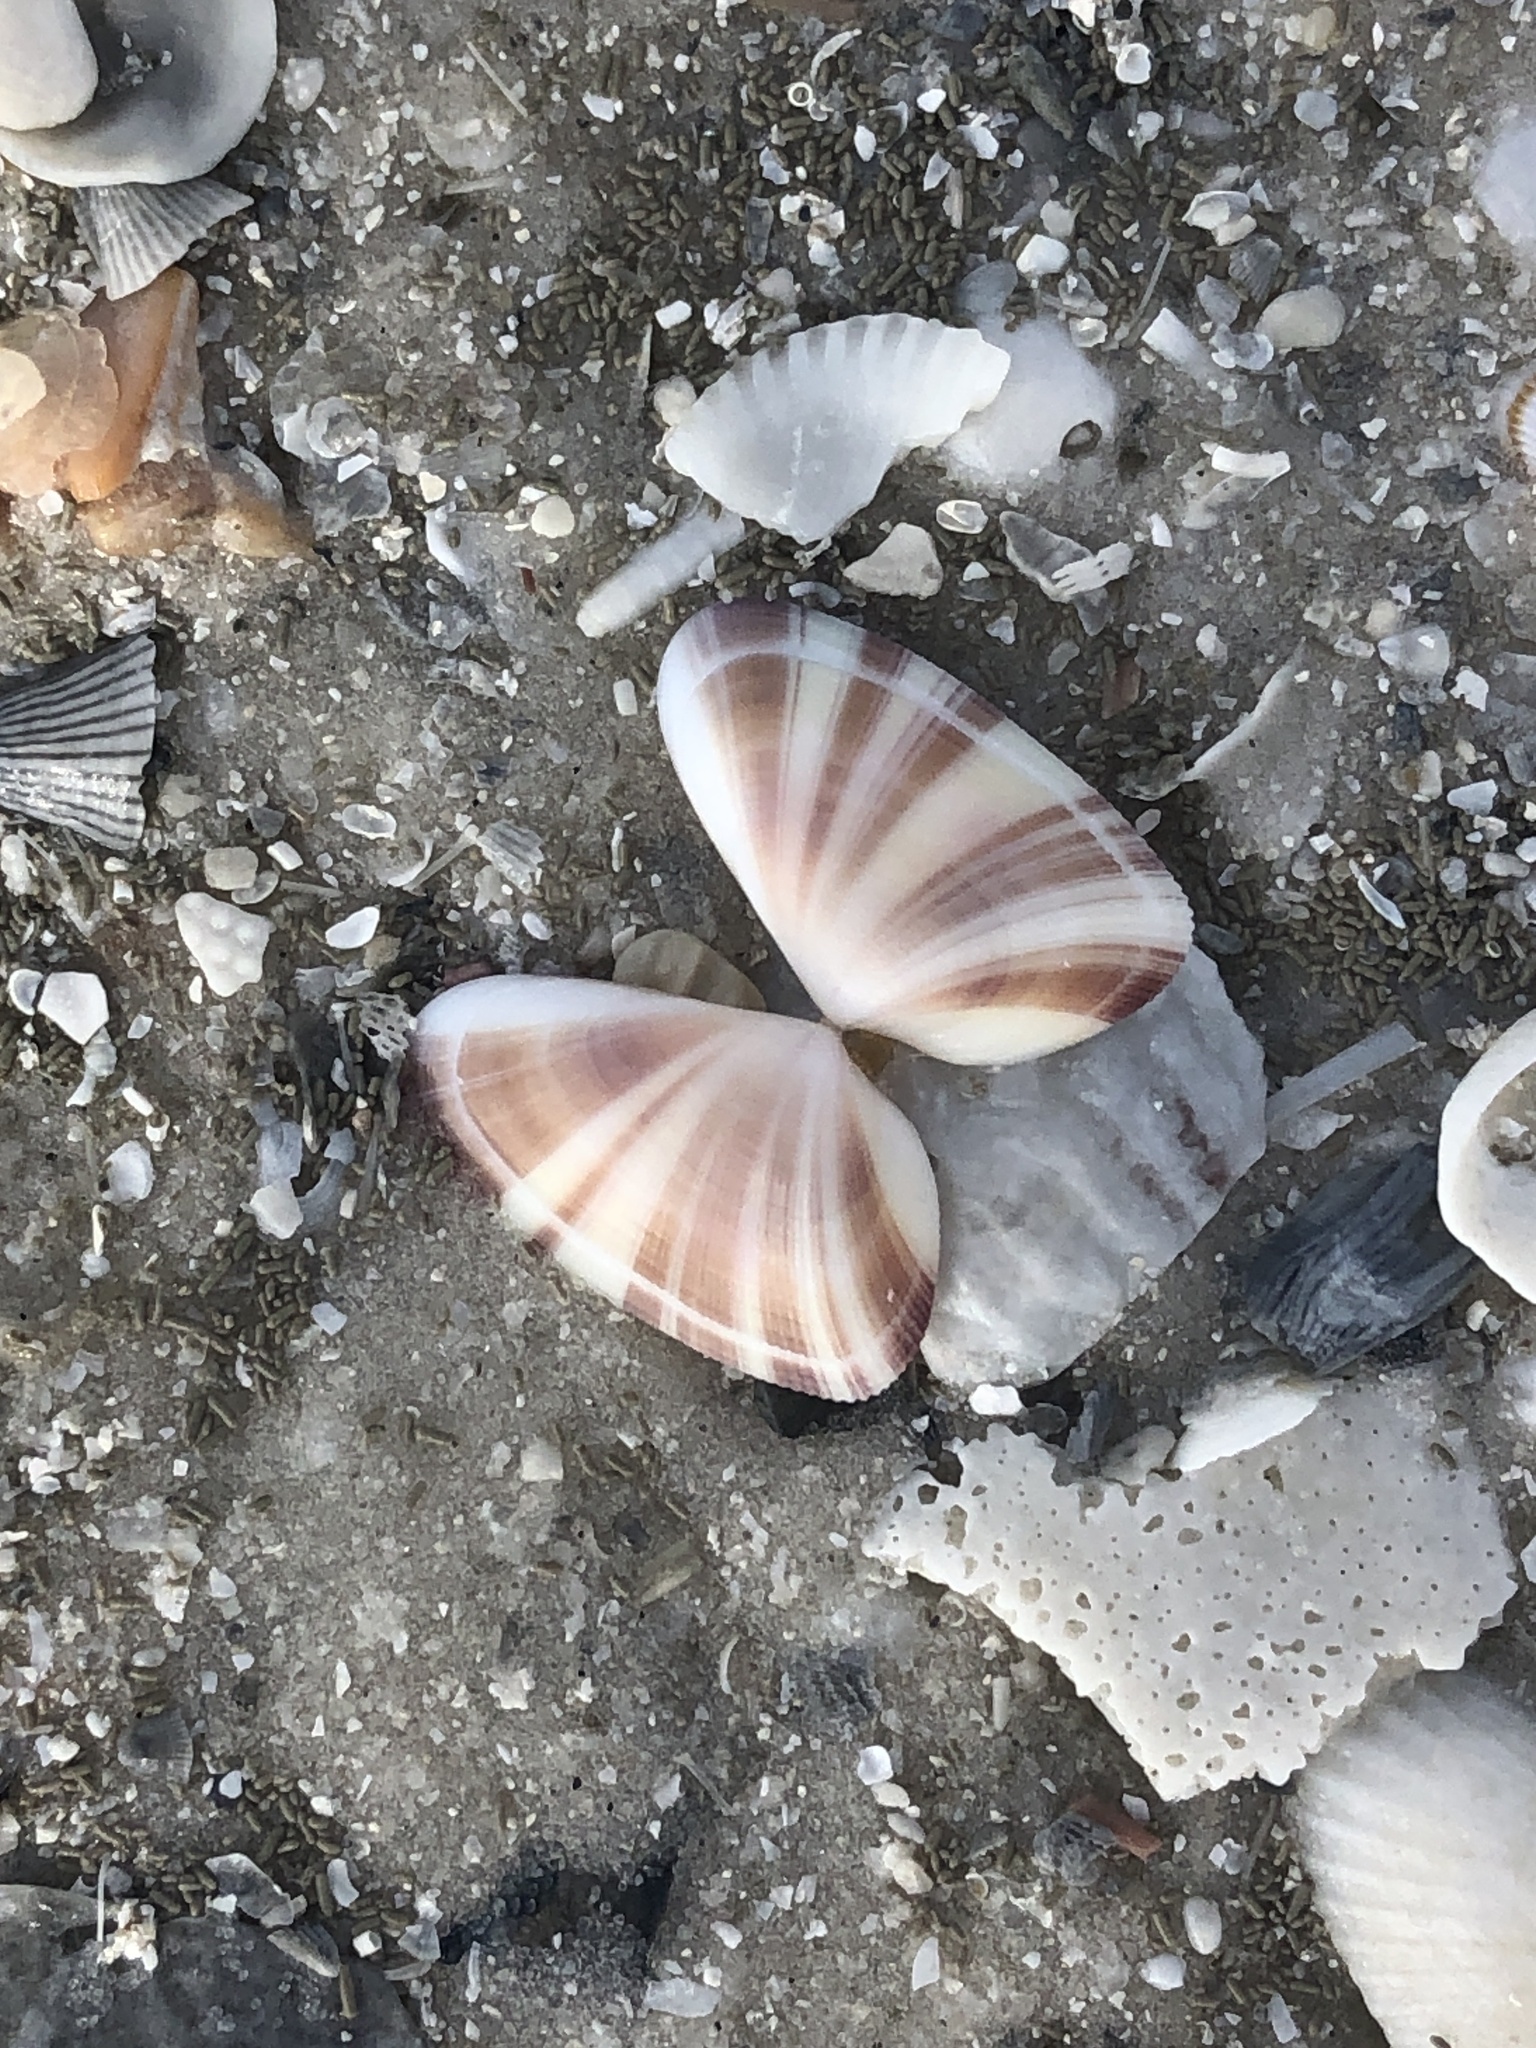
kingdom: Animalia
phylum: Mollusca
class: Bivalvia
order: Cardiida
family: Donacidae
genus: Donax
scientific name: Donax variabilis
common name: Butterfly shell
